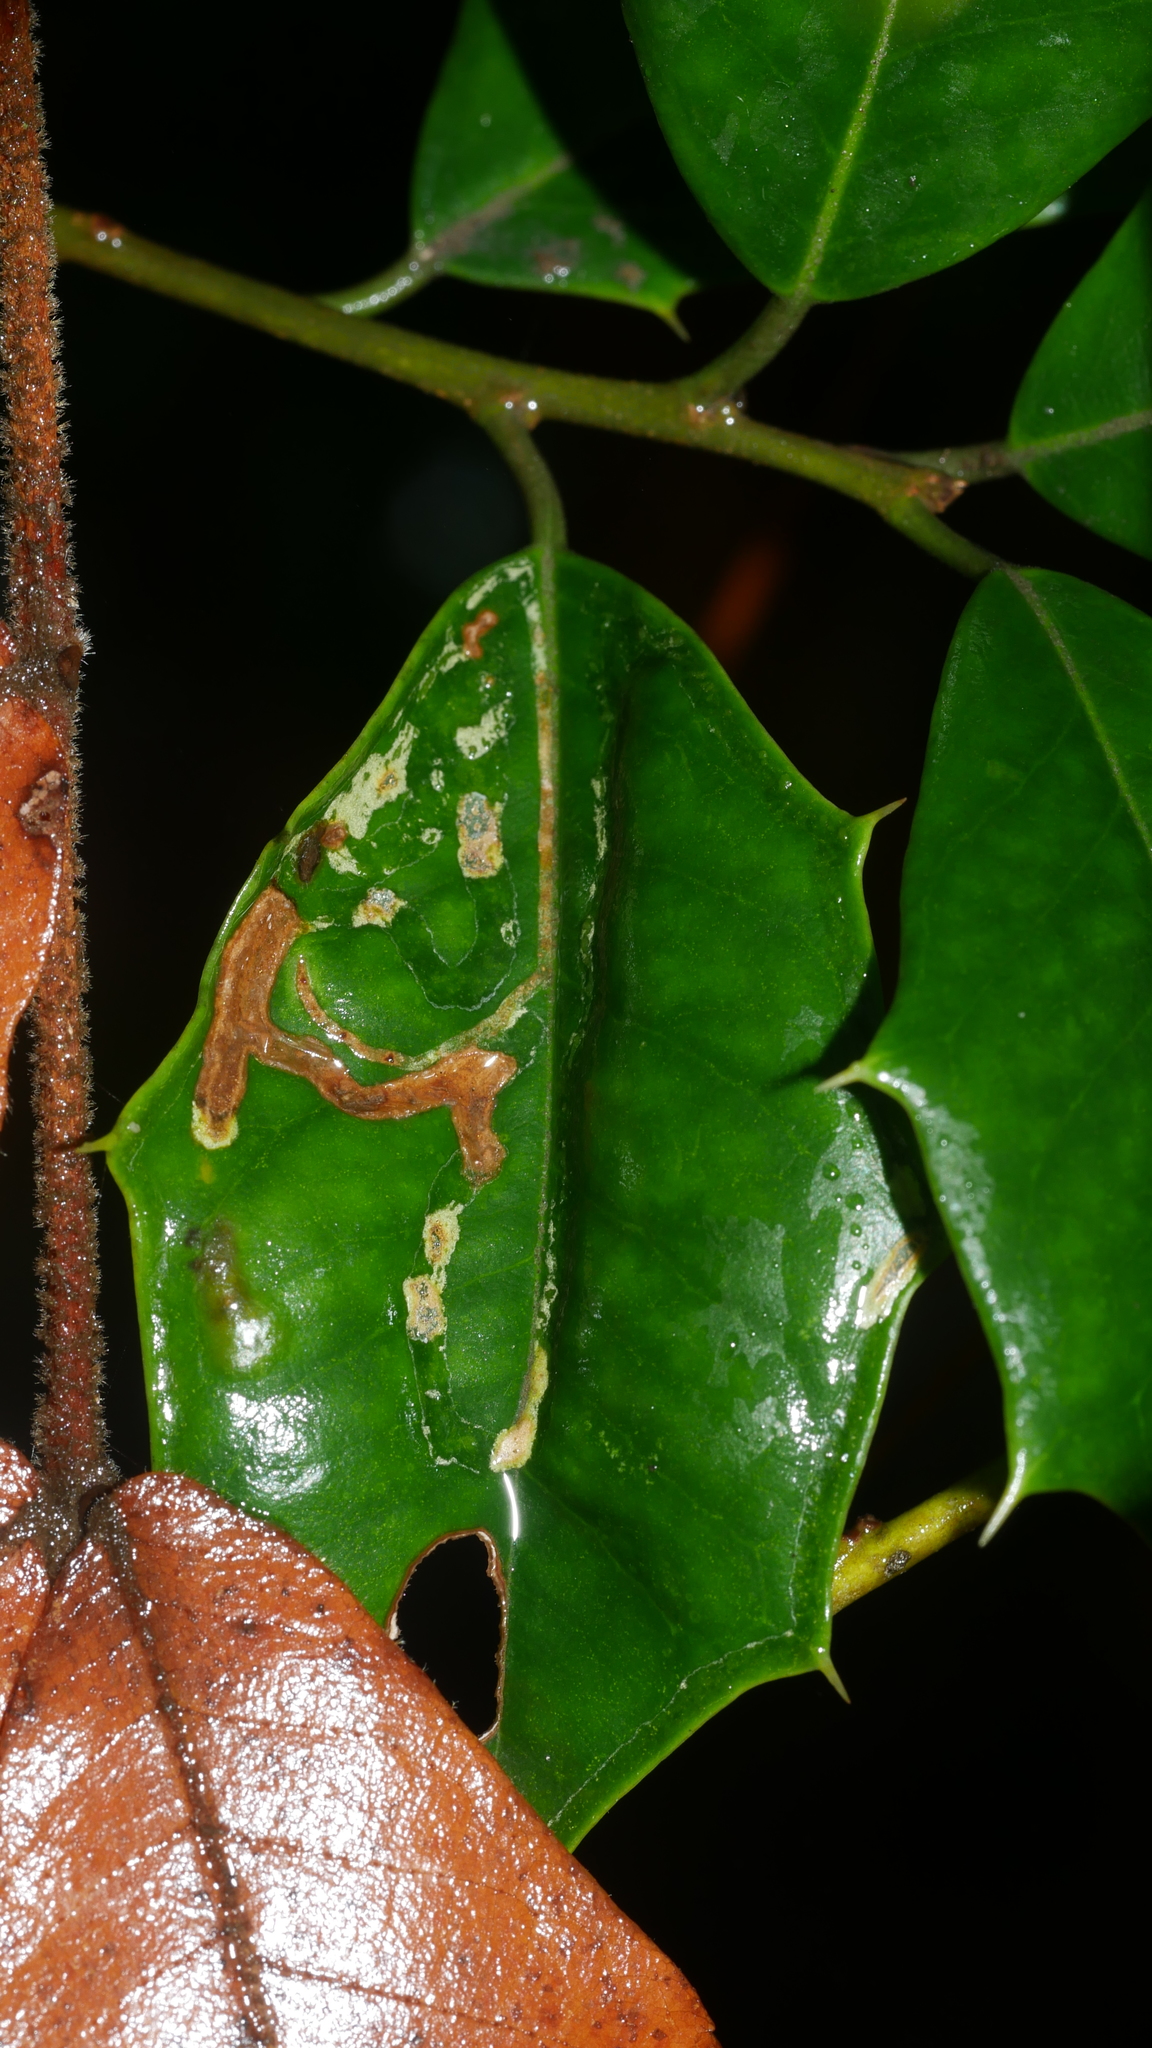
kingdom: Animalia
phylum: Arthropoda
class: Insecta
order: Diptera
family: Agromyzidae
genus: Phytomyza
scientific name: Phytomyza opacae
